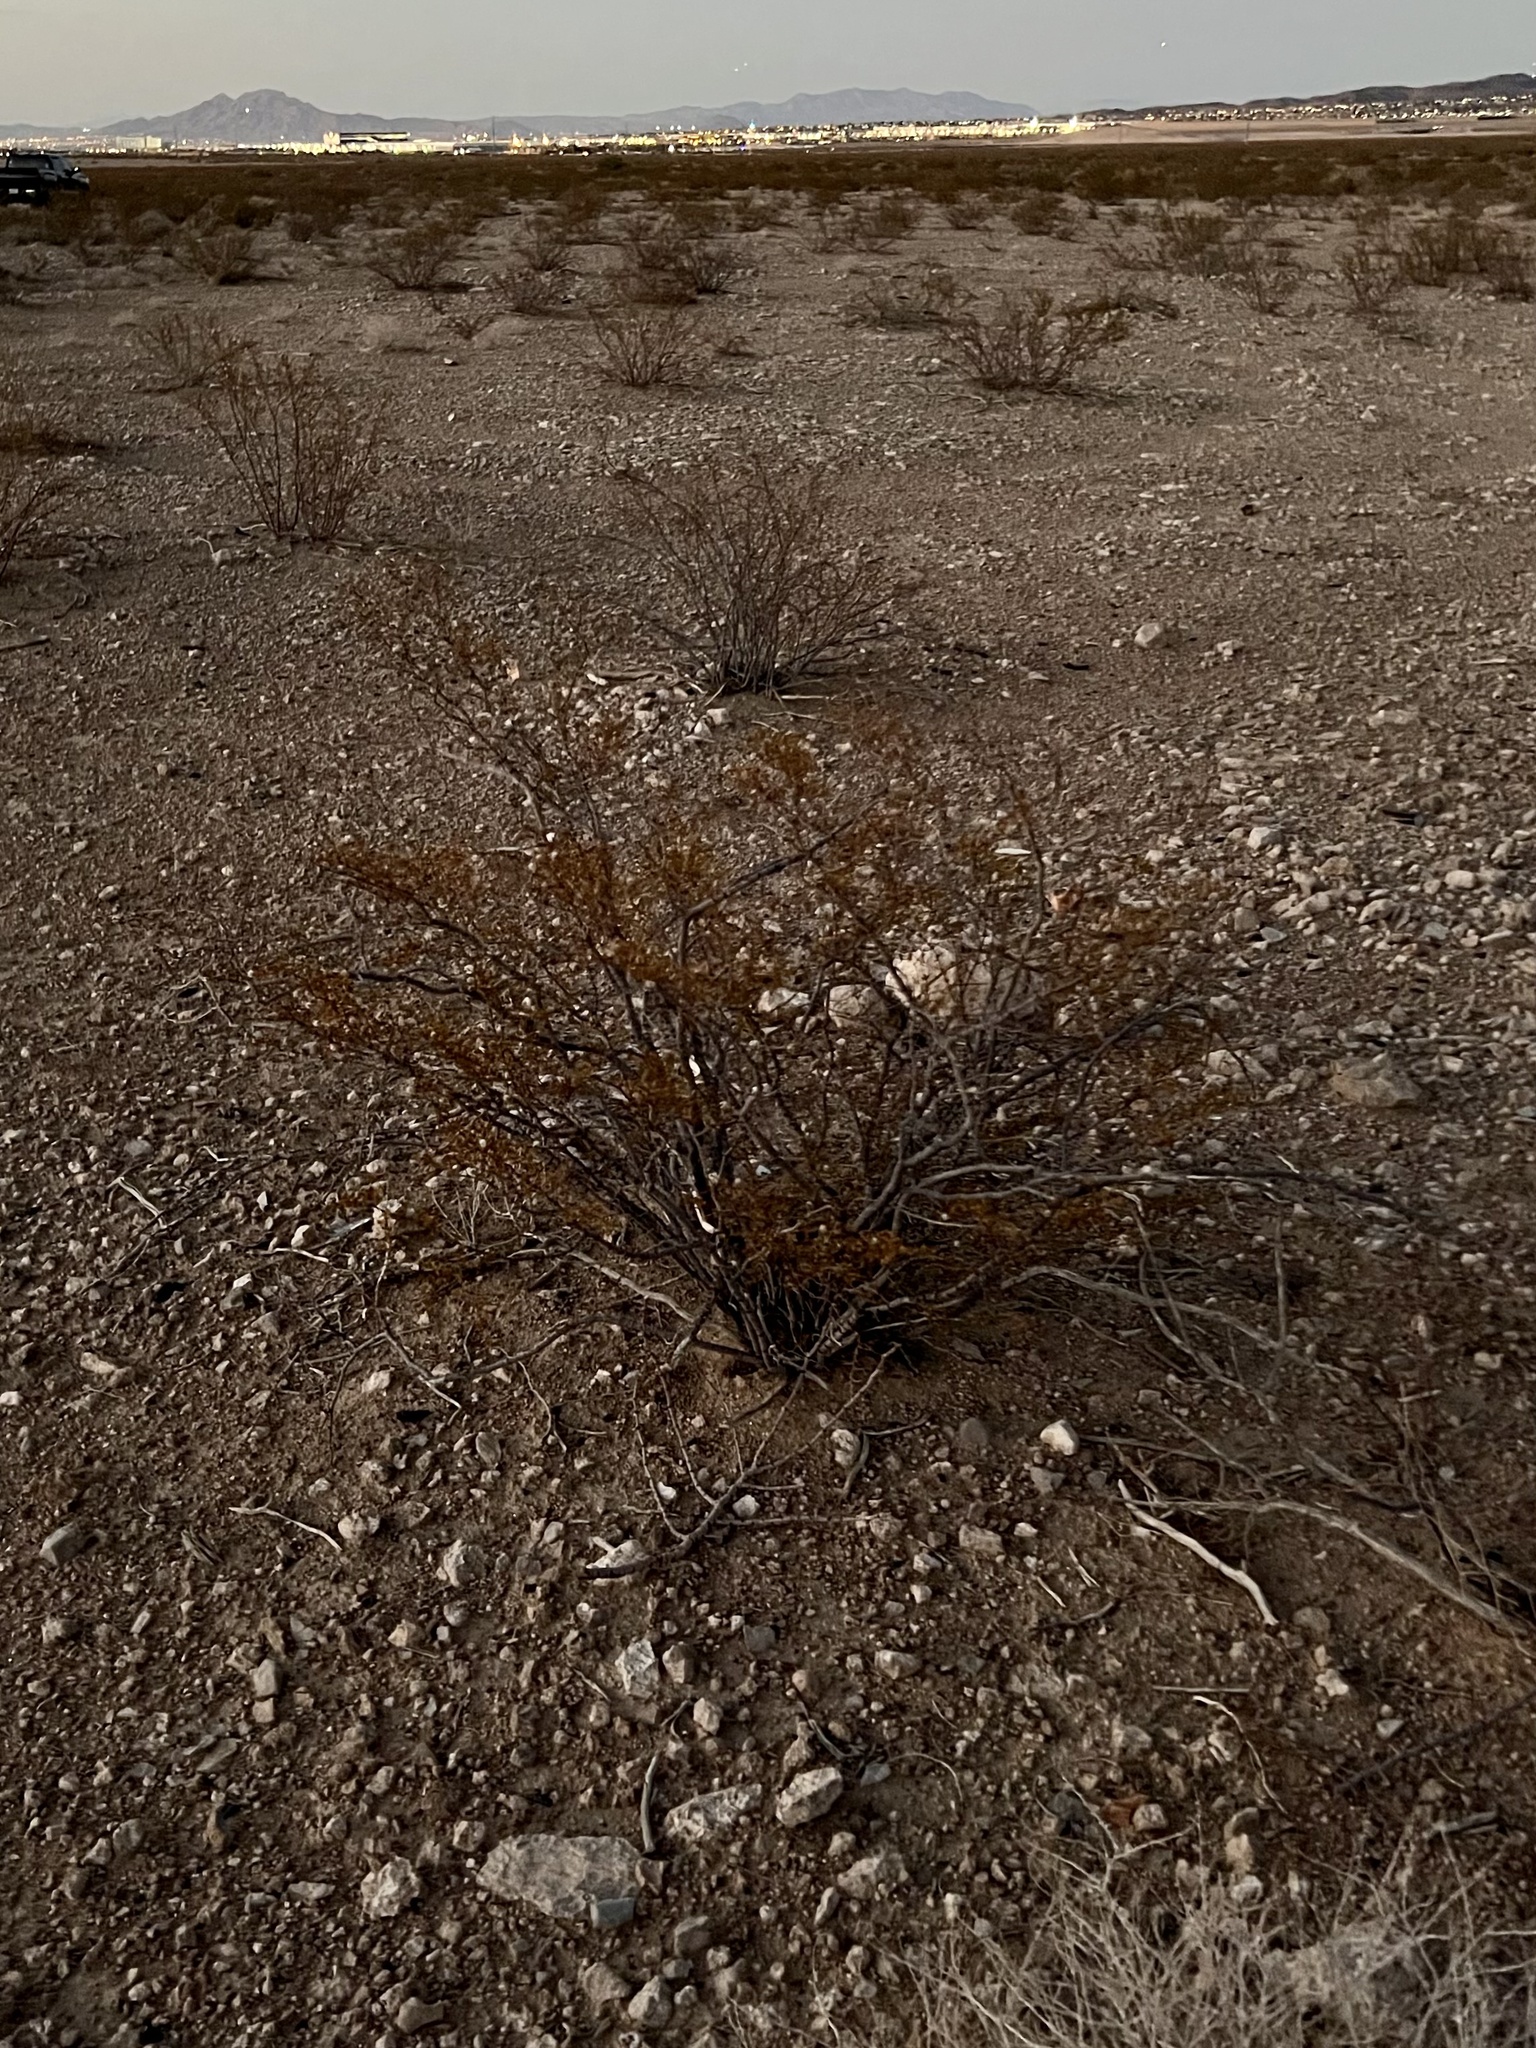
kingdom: Plantae
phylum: Tracheophyta
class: Magnoliopsida
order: Zygophyllales
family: Zygophyllaceae
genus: Larrea
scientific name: Larrea tridentata
